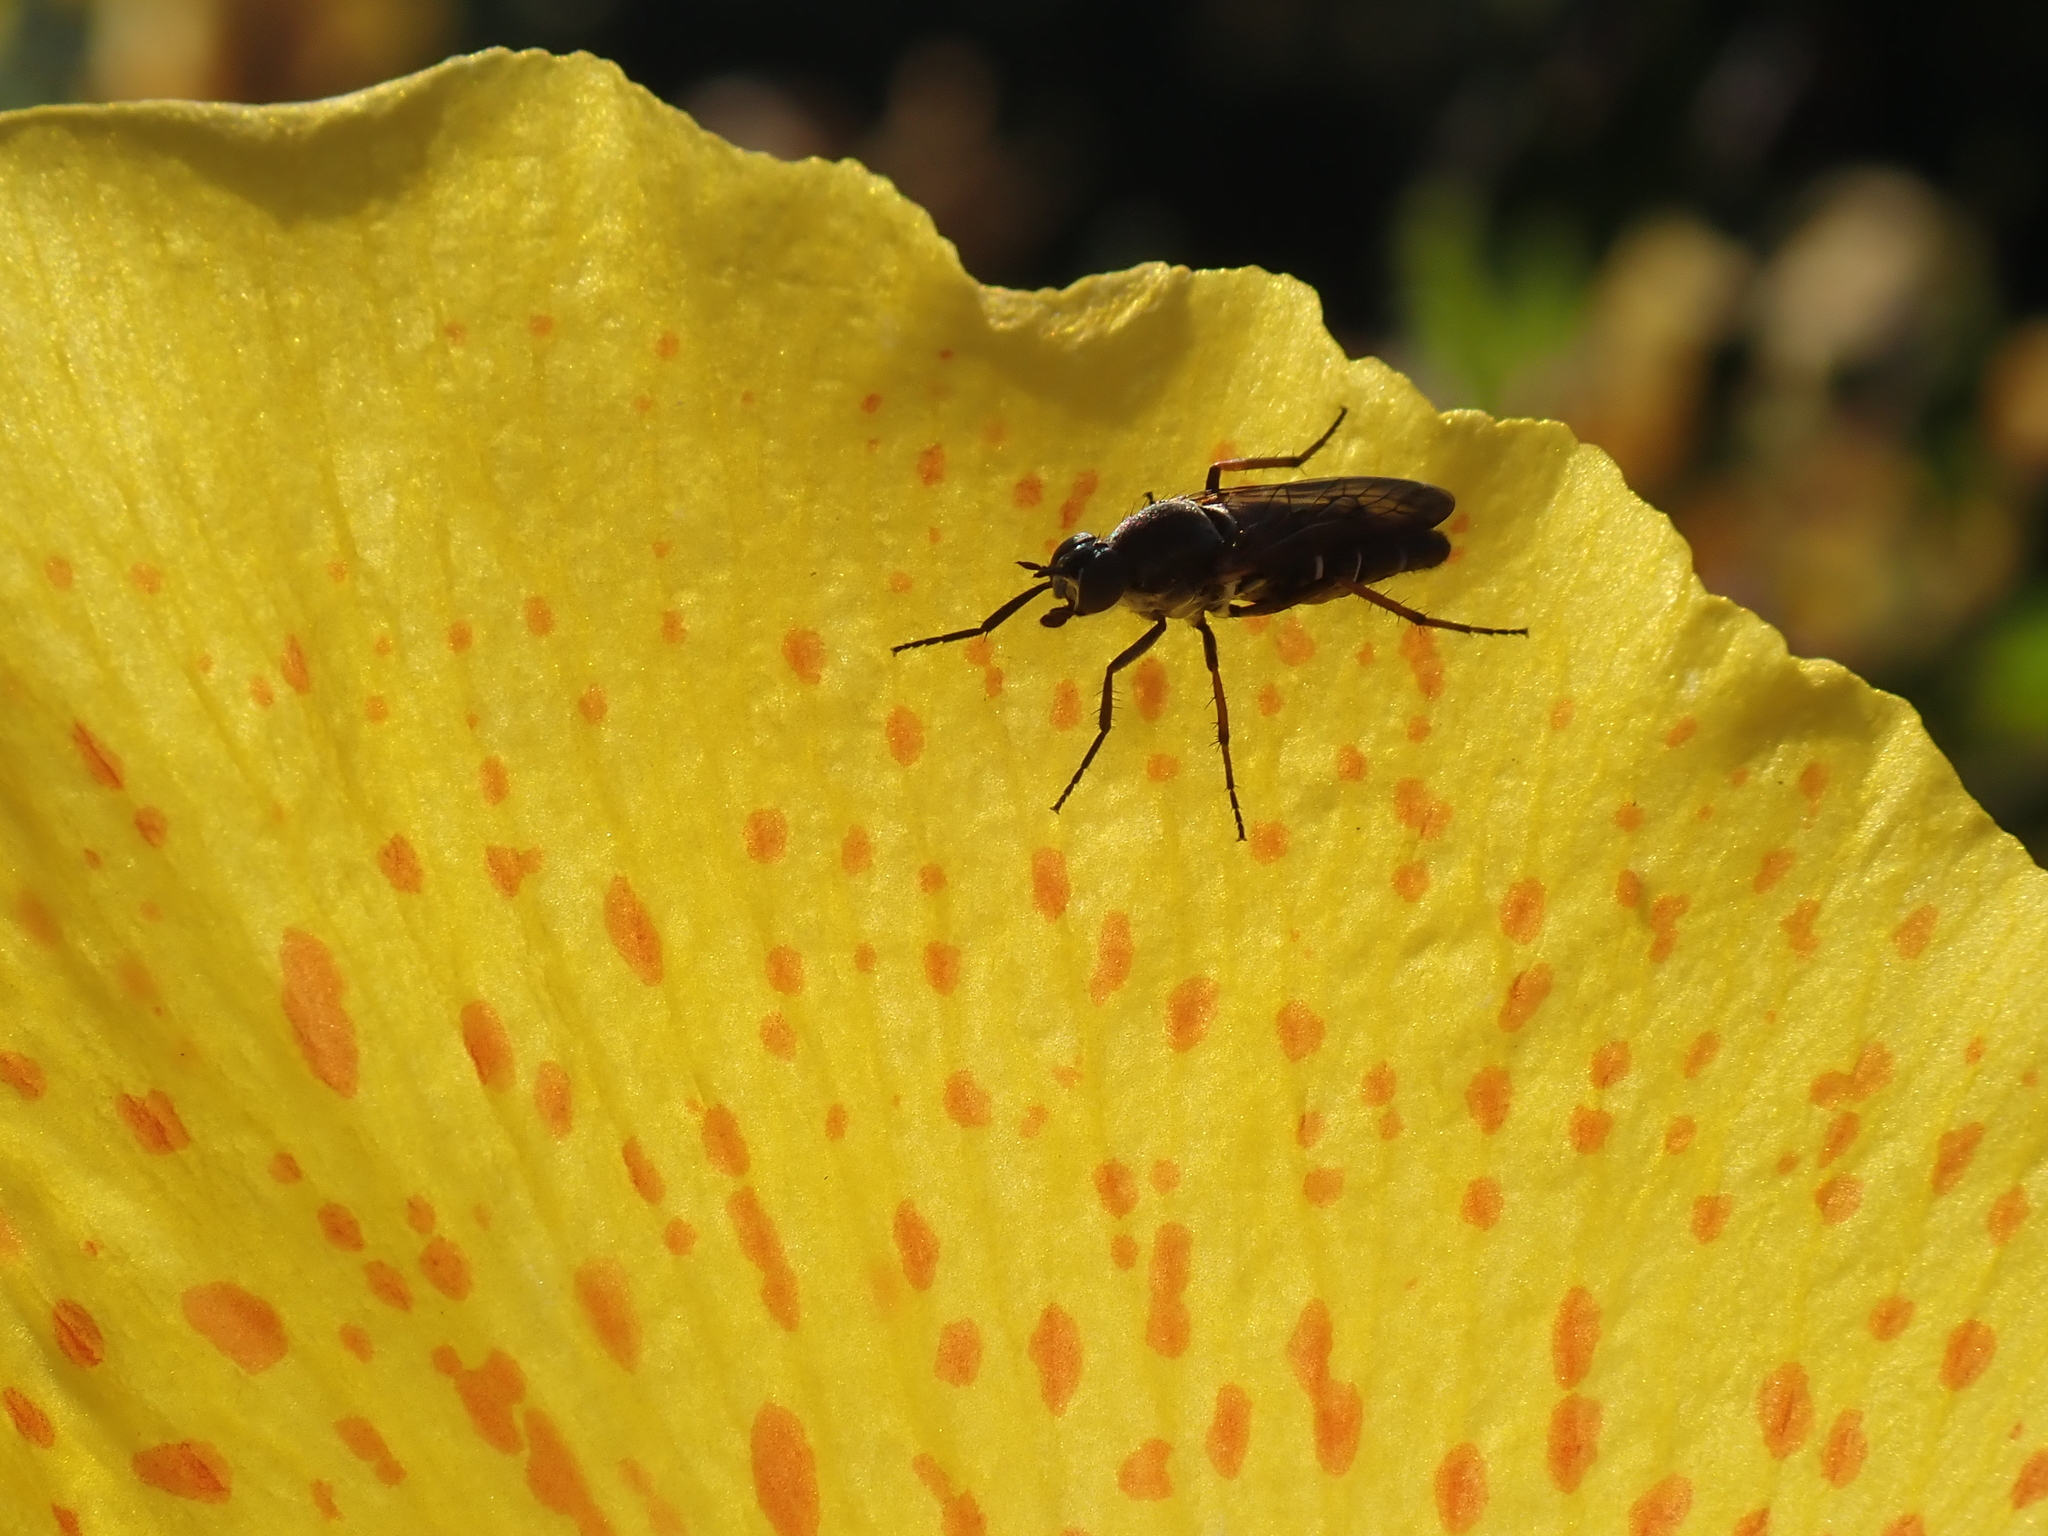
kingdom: Animalia
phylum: Arthropoda
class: Insecta
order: Diptera
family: Therevidae
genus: Ozodiceromyia
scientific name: Ozodiceromyia nigrimana
